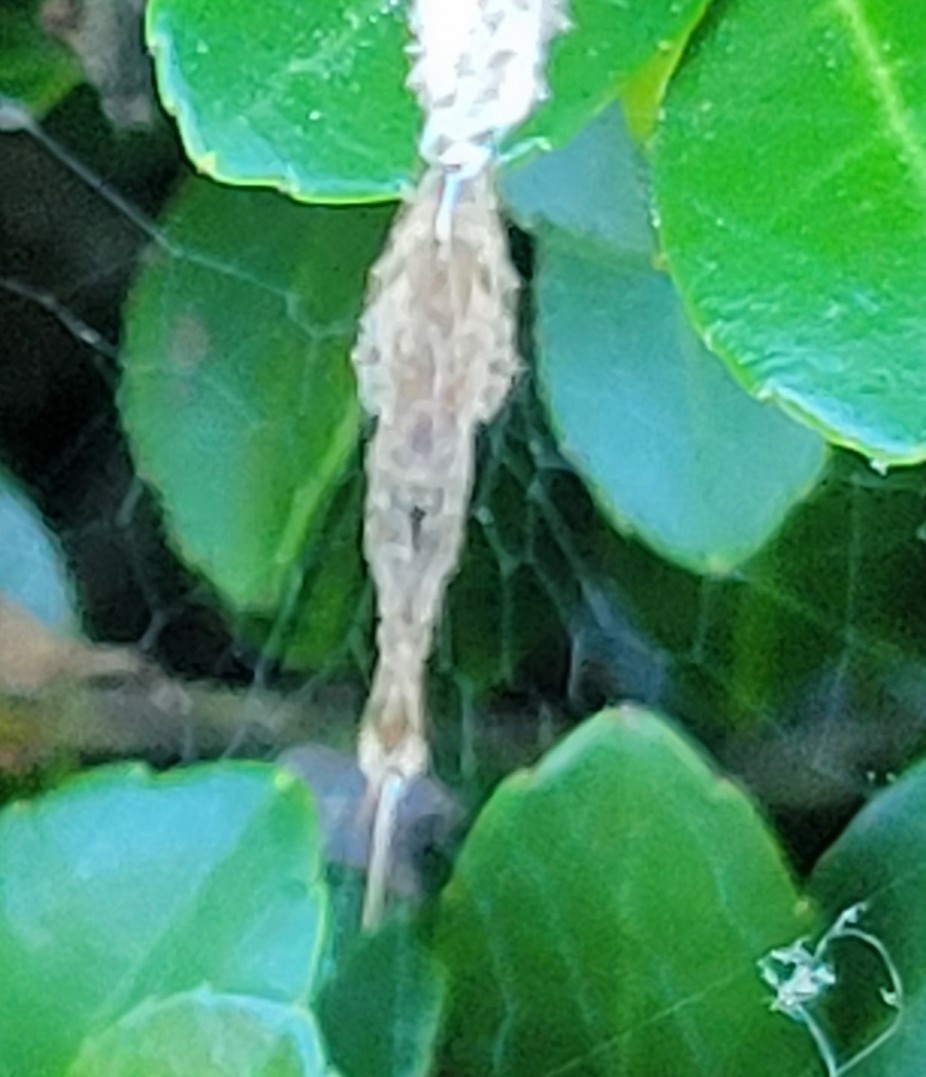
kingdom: Animalia
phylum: Arthropoda
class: Arachnida
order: Araneae
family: Uloboridae
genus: Uloborus
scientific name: Uloborus glomosus
